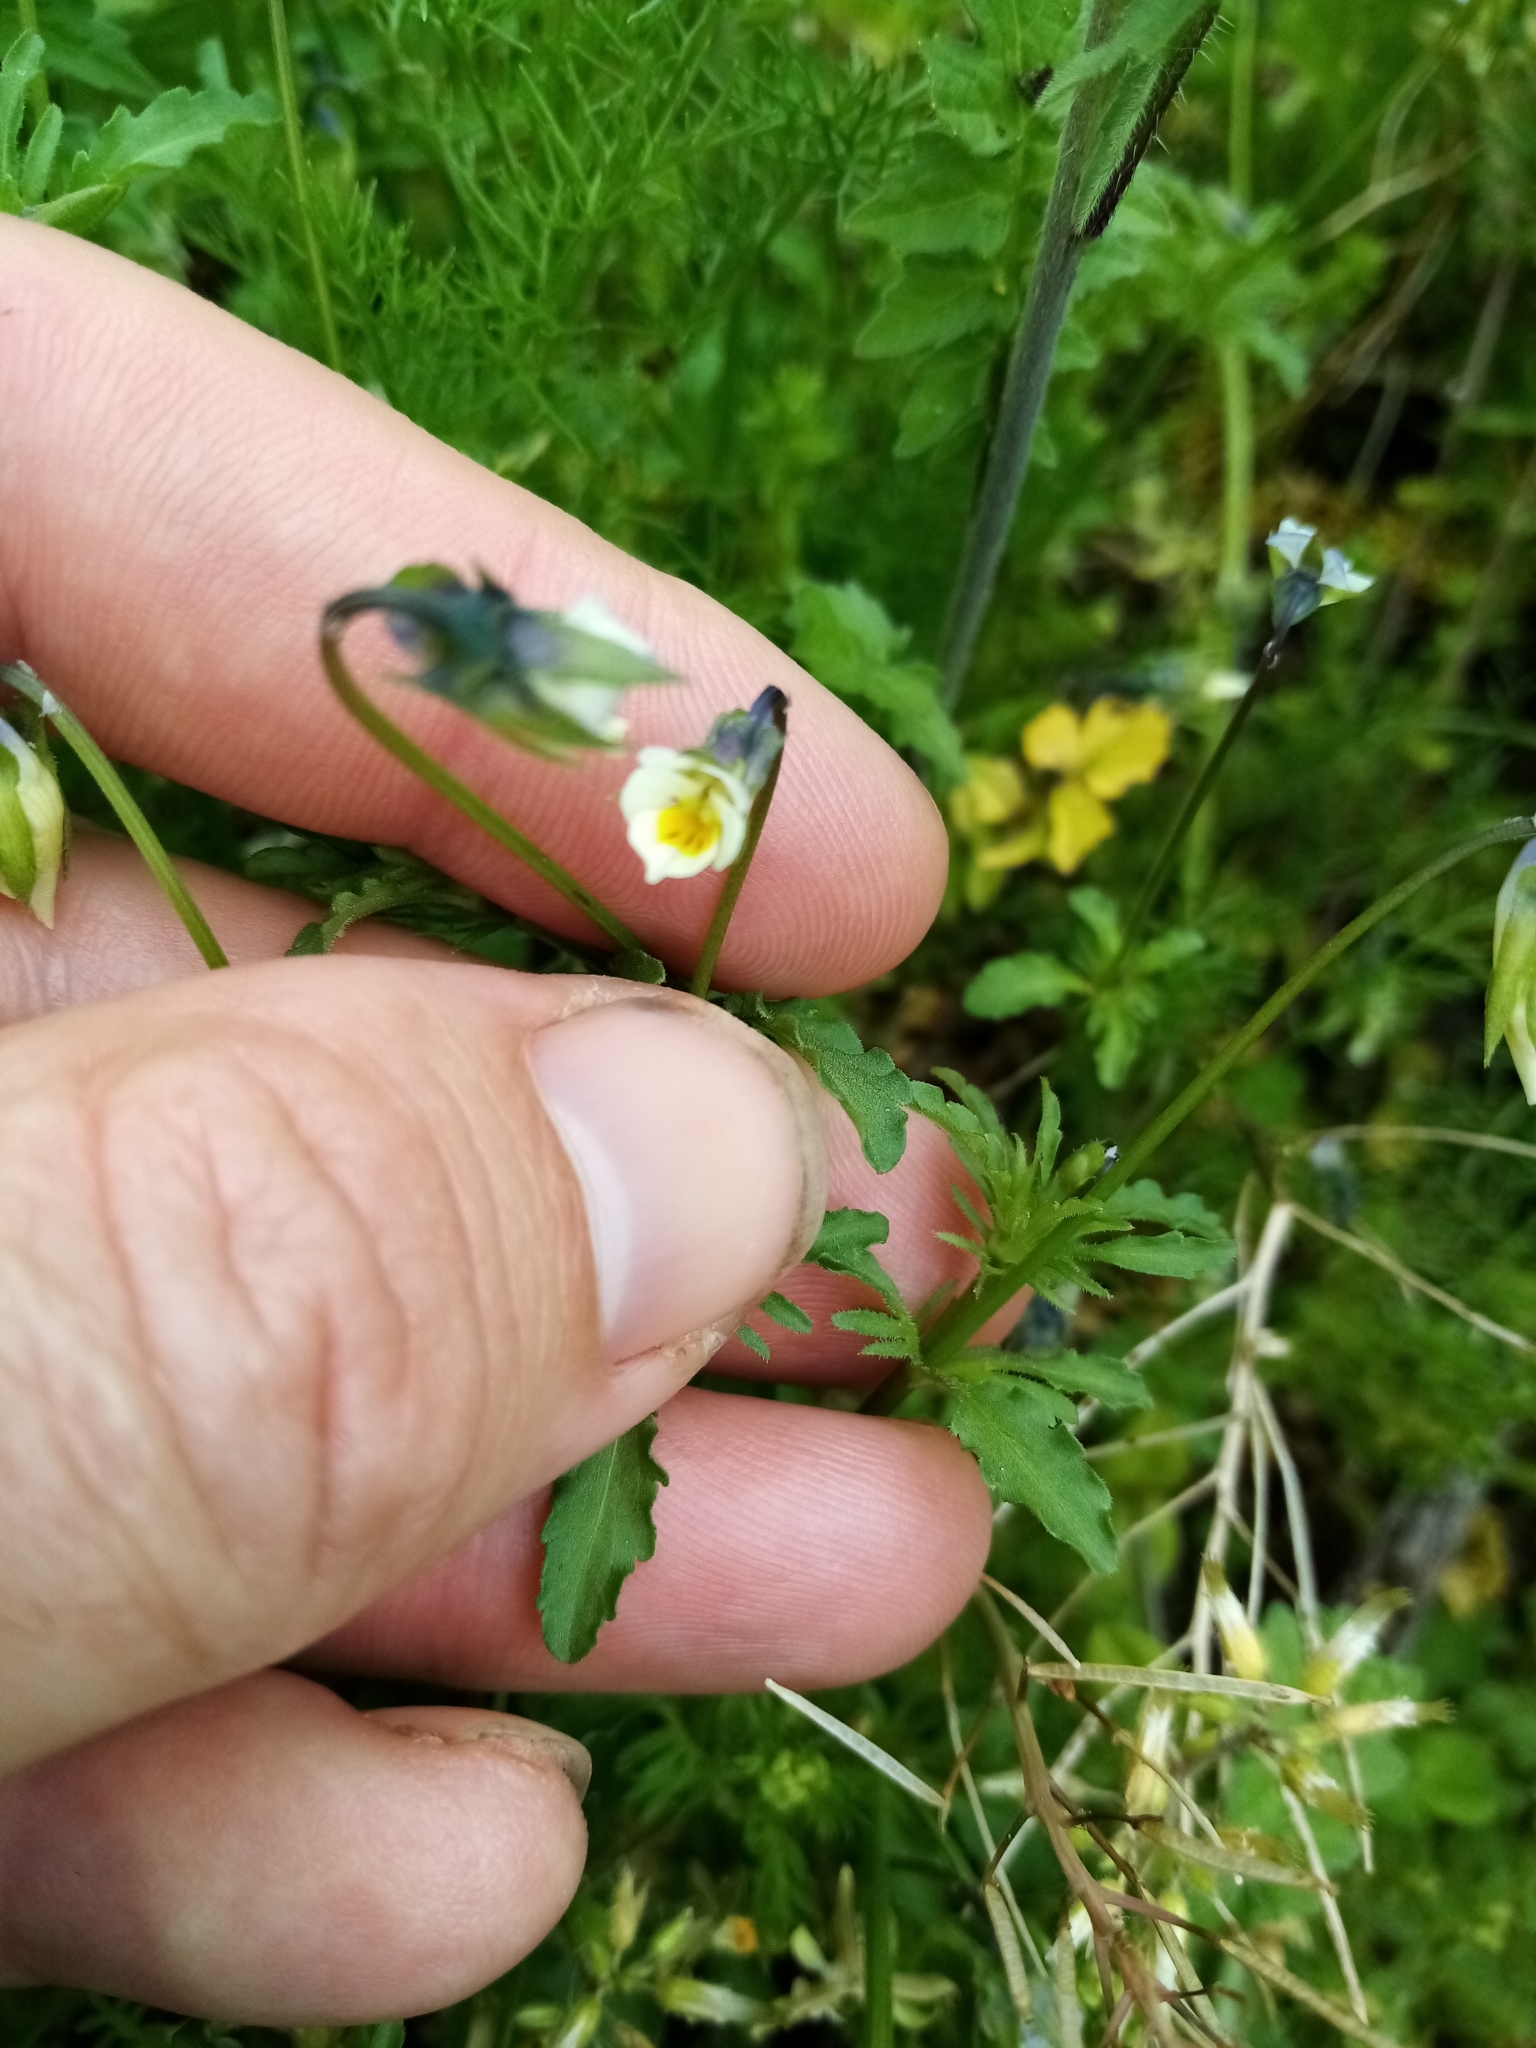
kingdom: Plantae
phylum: Tracheophyta
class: Magnoliopsida
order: Malpighiales
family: Violaceae
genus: Viola
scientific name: Viola arvensis
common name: Field pansy
